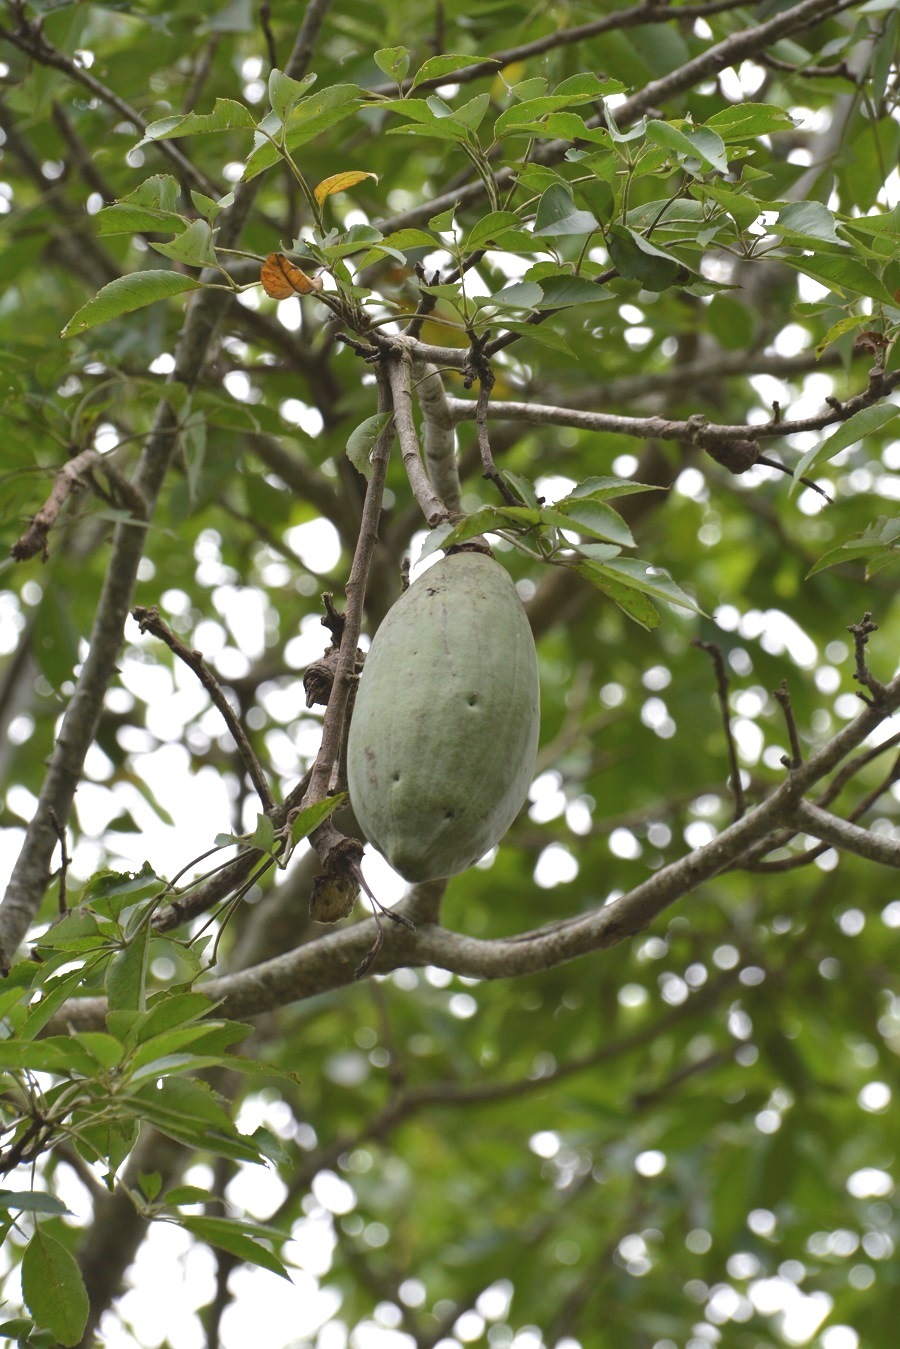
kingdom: Plantae
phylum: Tracheophyta
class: Magnoliopsida
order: Malvales
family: Malvaceae
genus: Ceiba
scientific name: Ceiba aesculifolia
